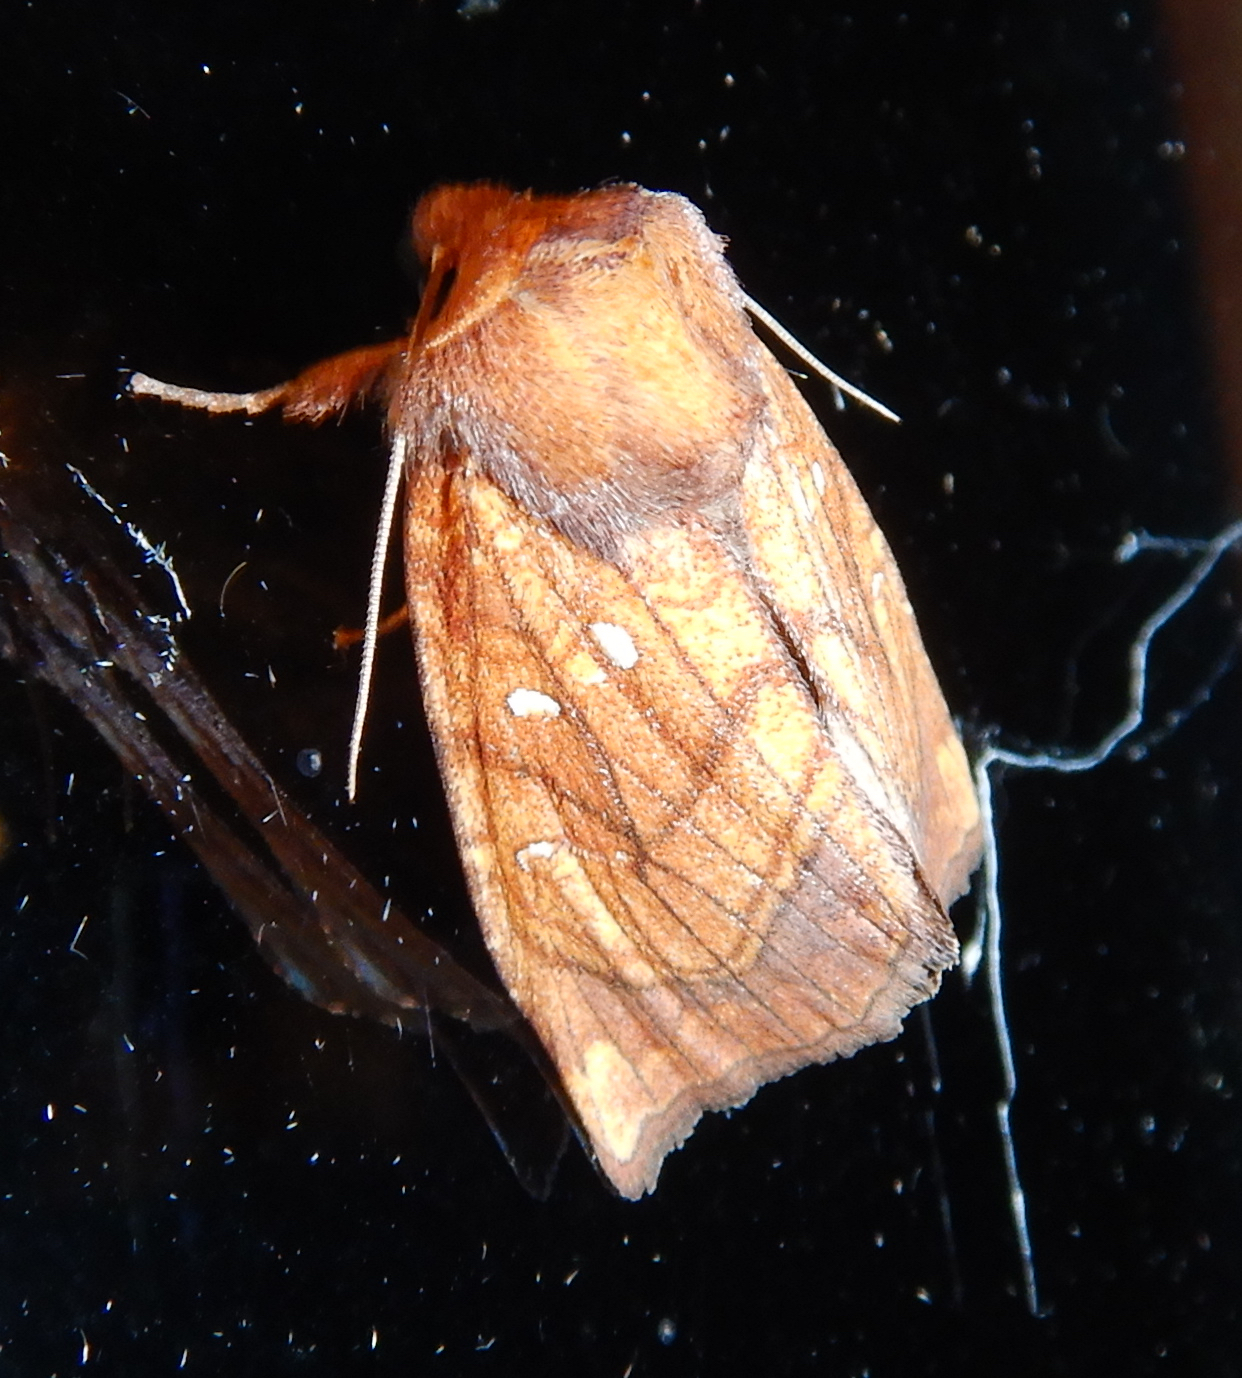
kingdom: Animalia
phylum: Arthropoda
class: Insecta
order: Lepidoptera
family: Noctuidae
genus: Papaipema
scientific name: Papaipema inquaesita
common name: Sensitive fern borer moth
